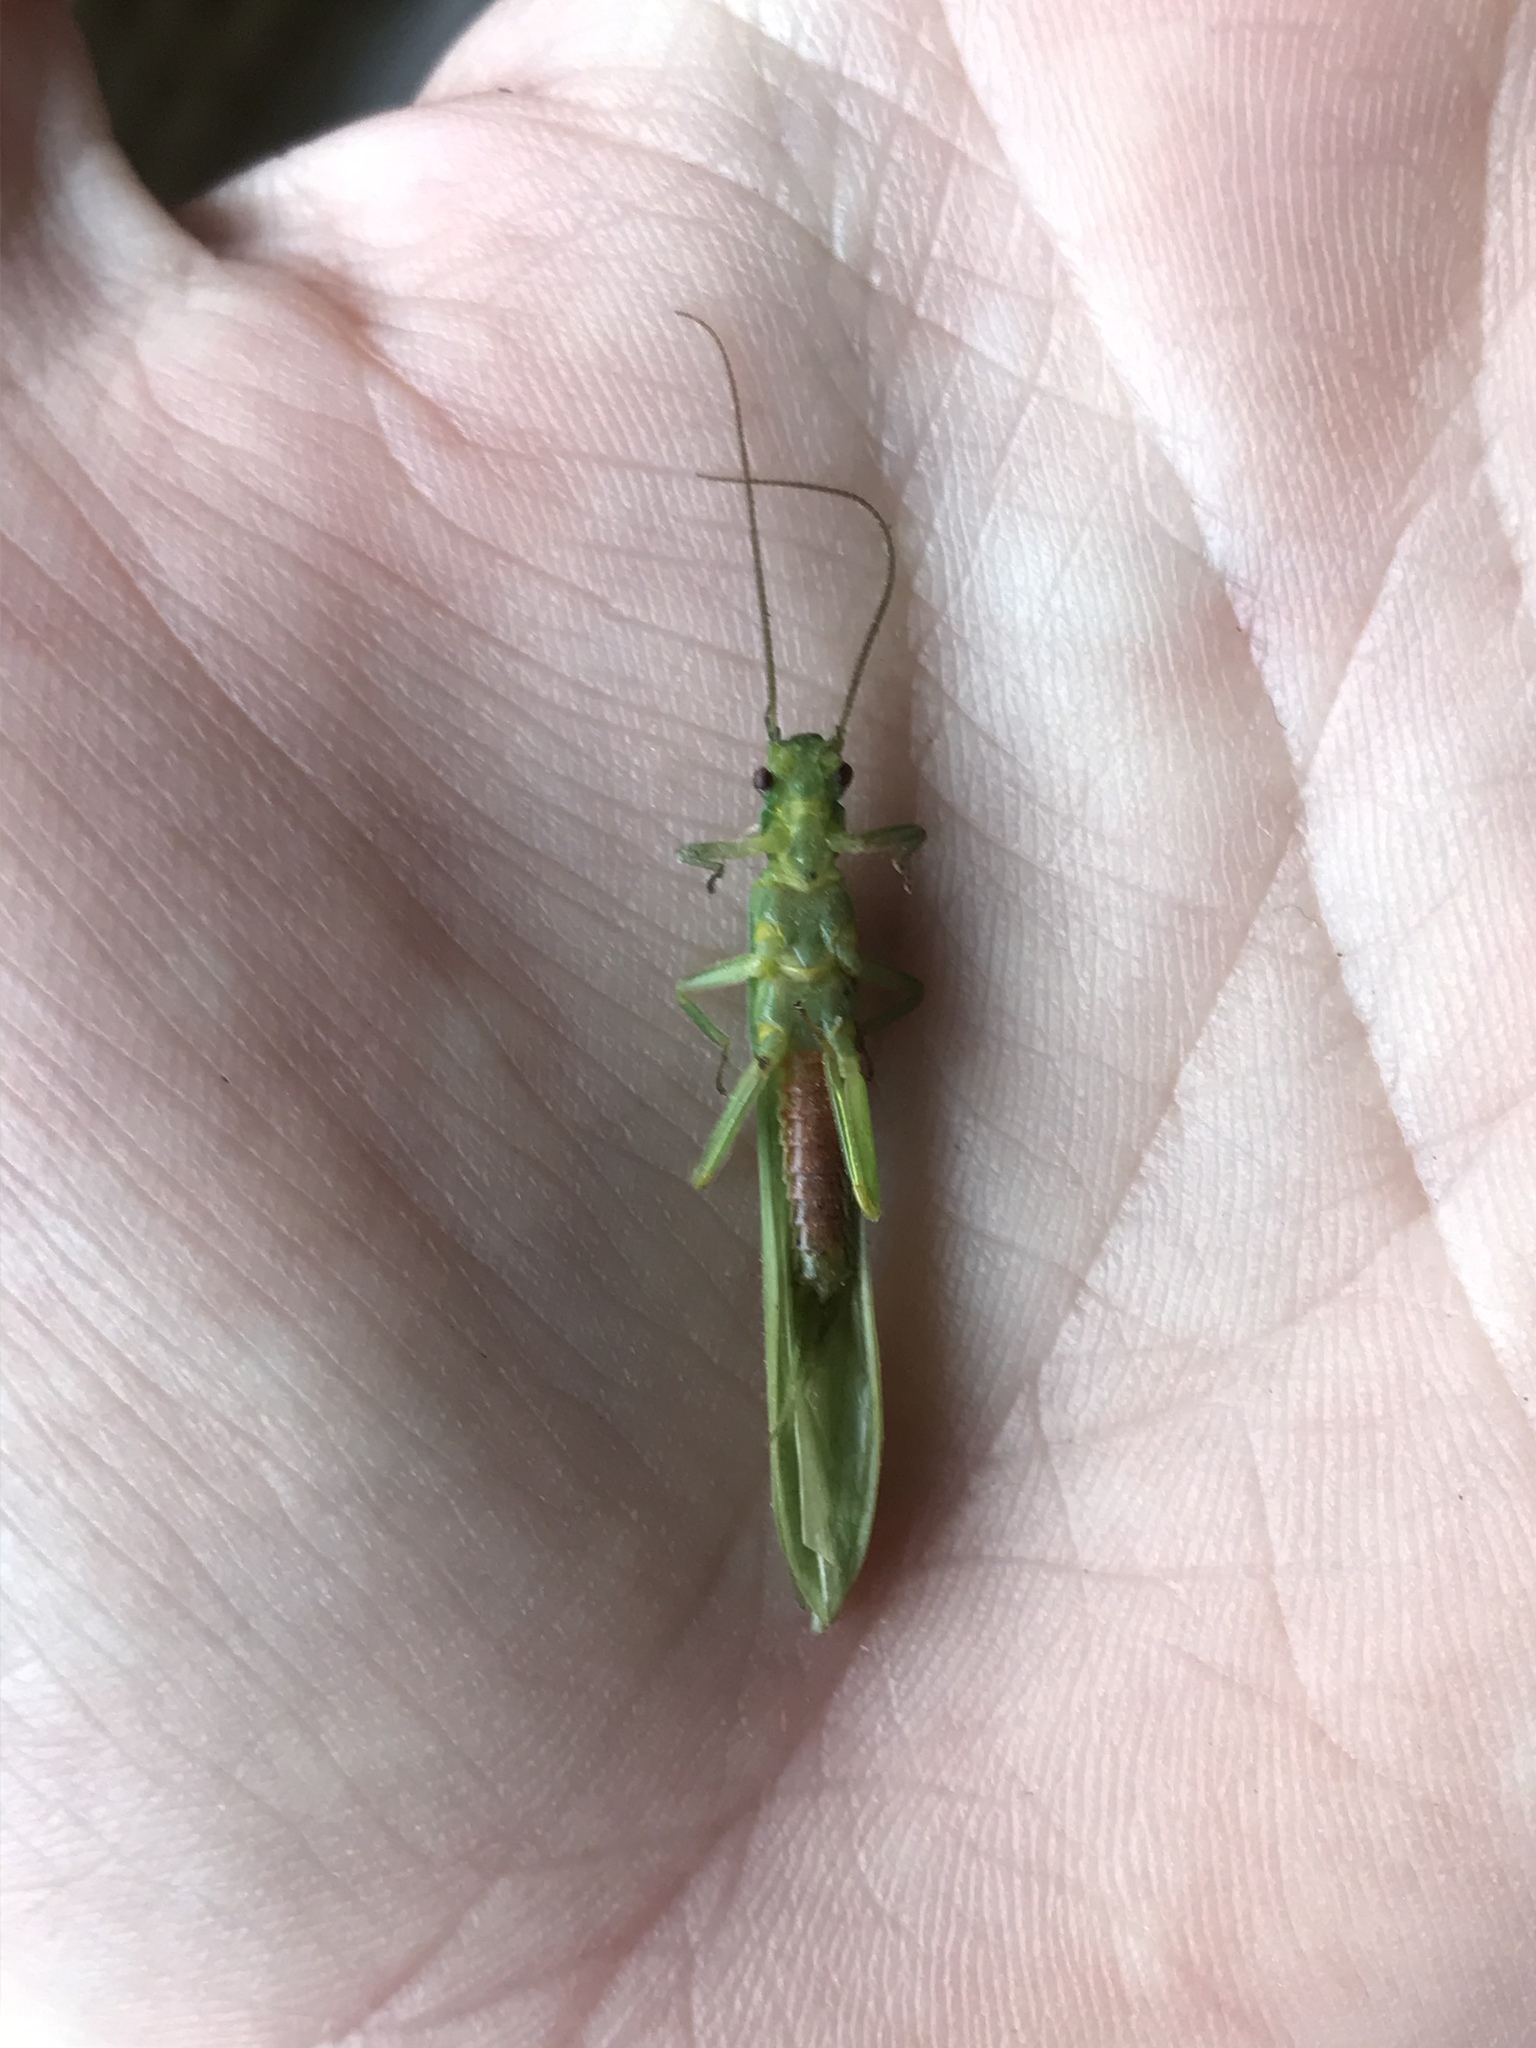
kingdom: Animalia
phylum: Arthropoda
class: Insecta
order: Plecoptera
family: Eustheniidae
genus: Stenoperla
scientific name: Stenoperla prasina
